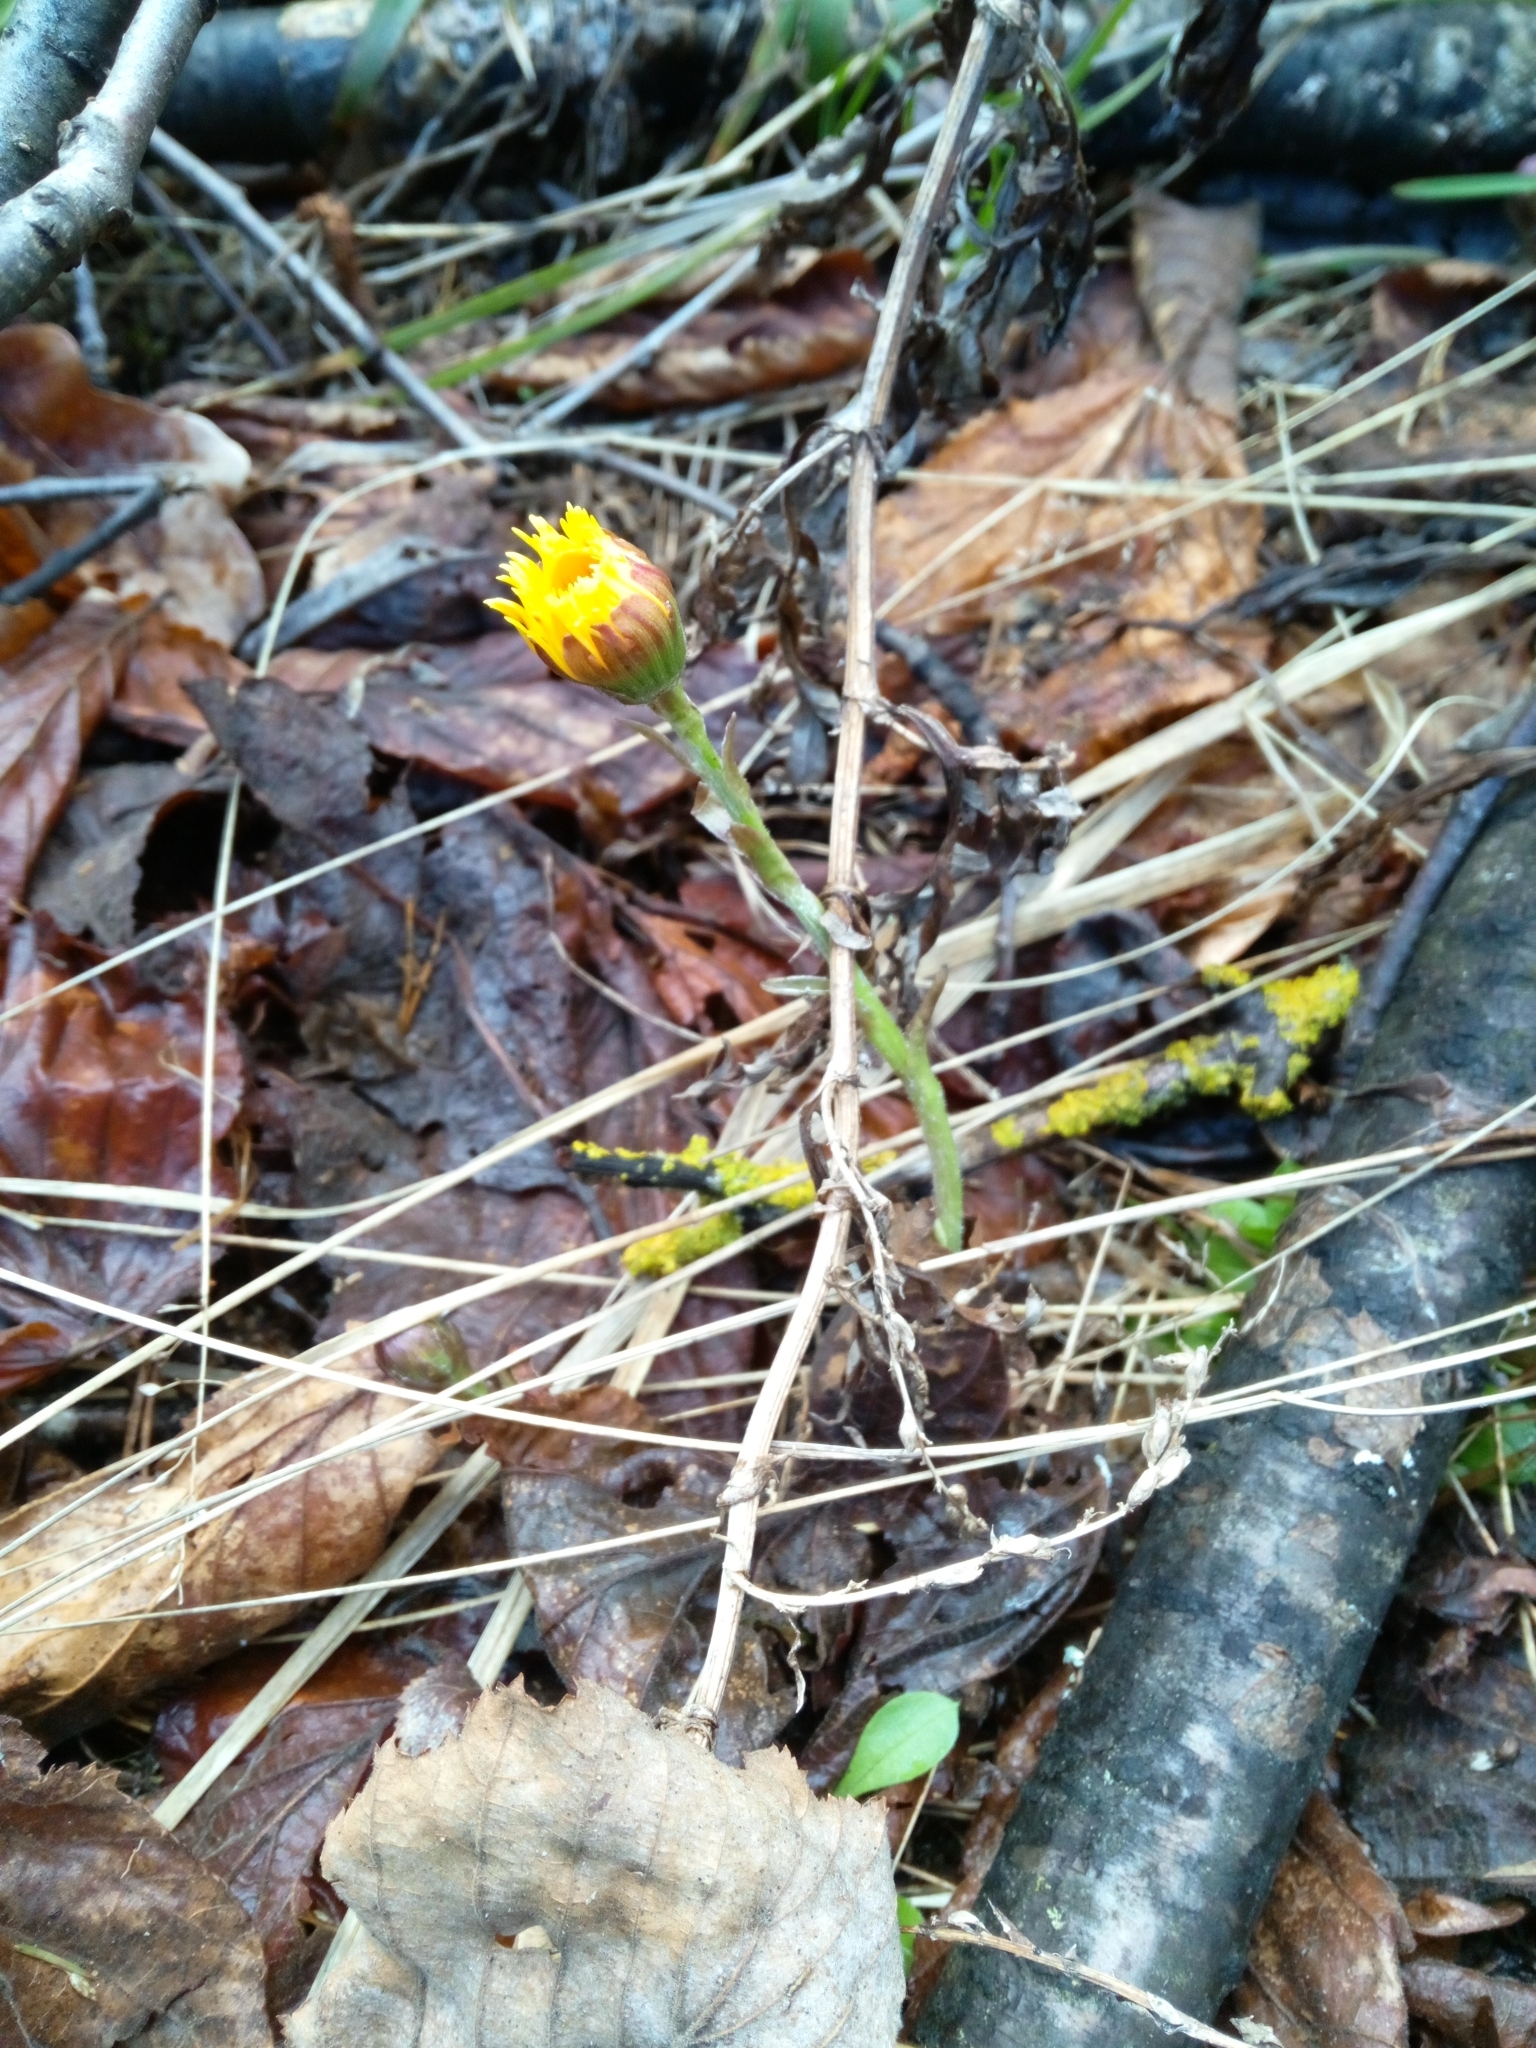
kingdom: Plantae
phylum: Tracheophyta
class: Magnoliopsida
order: Asterales
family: Asteraceae
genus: Tussilago
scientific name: Tussilago farfara
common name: Coltsfoot
